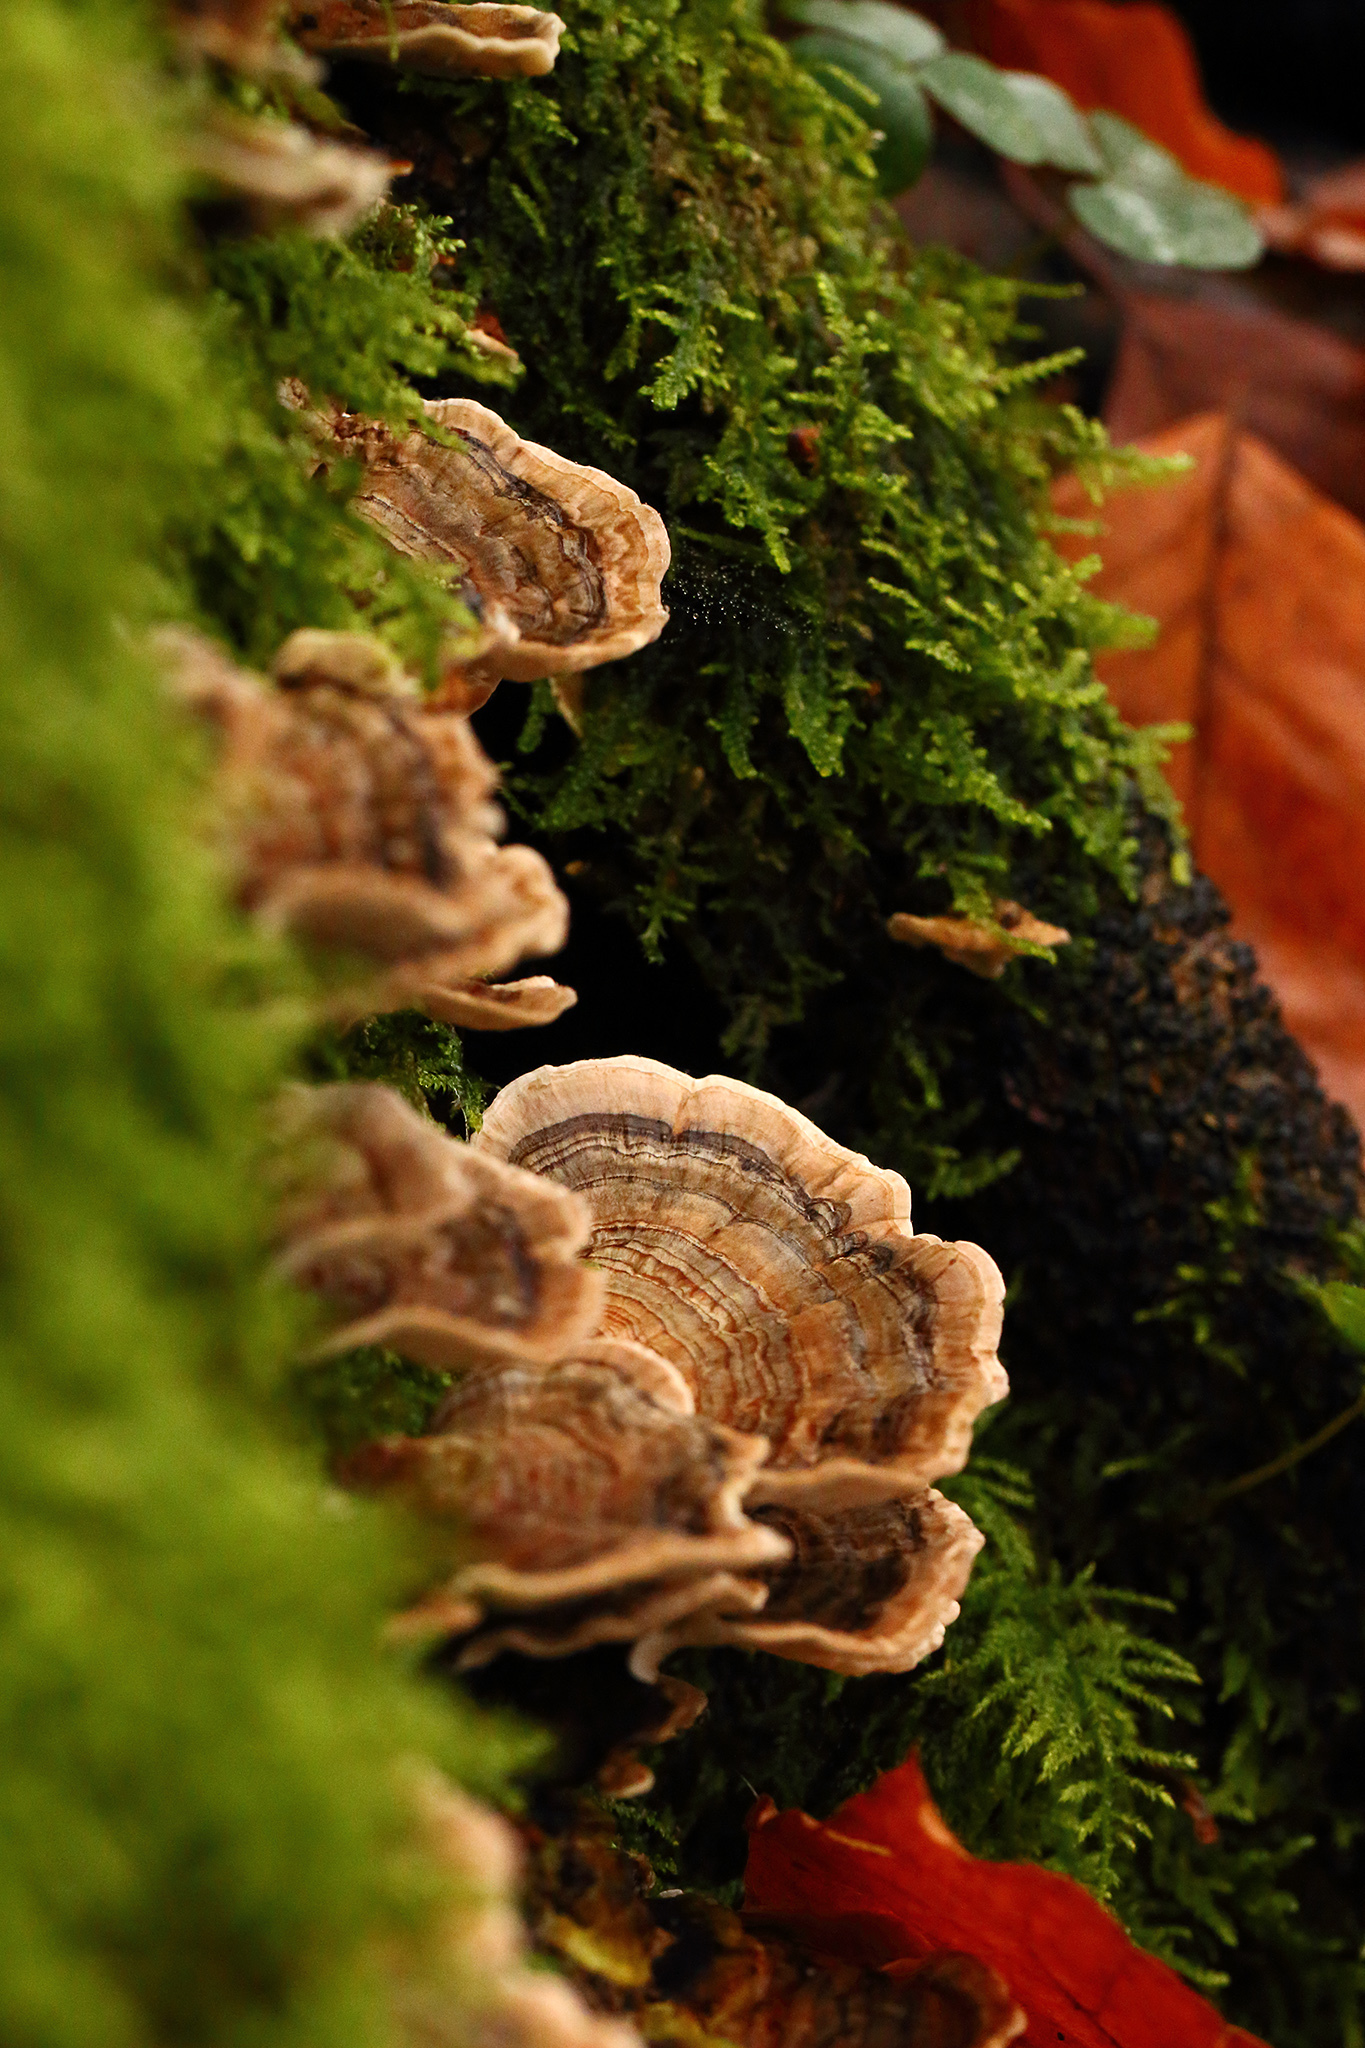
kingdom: Fungi
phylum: Basidiomycota
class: Agaricomycetes
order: Polyporales
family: Polyporaceae
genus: Trametes
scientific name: Trametes versicolor
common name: Turkeytail
